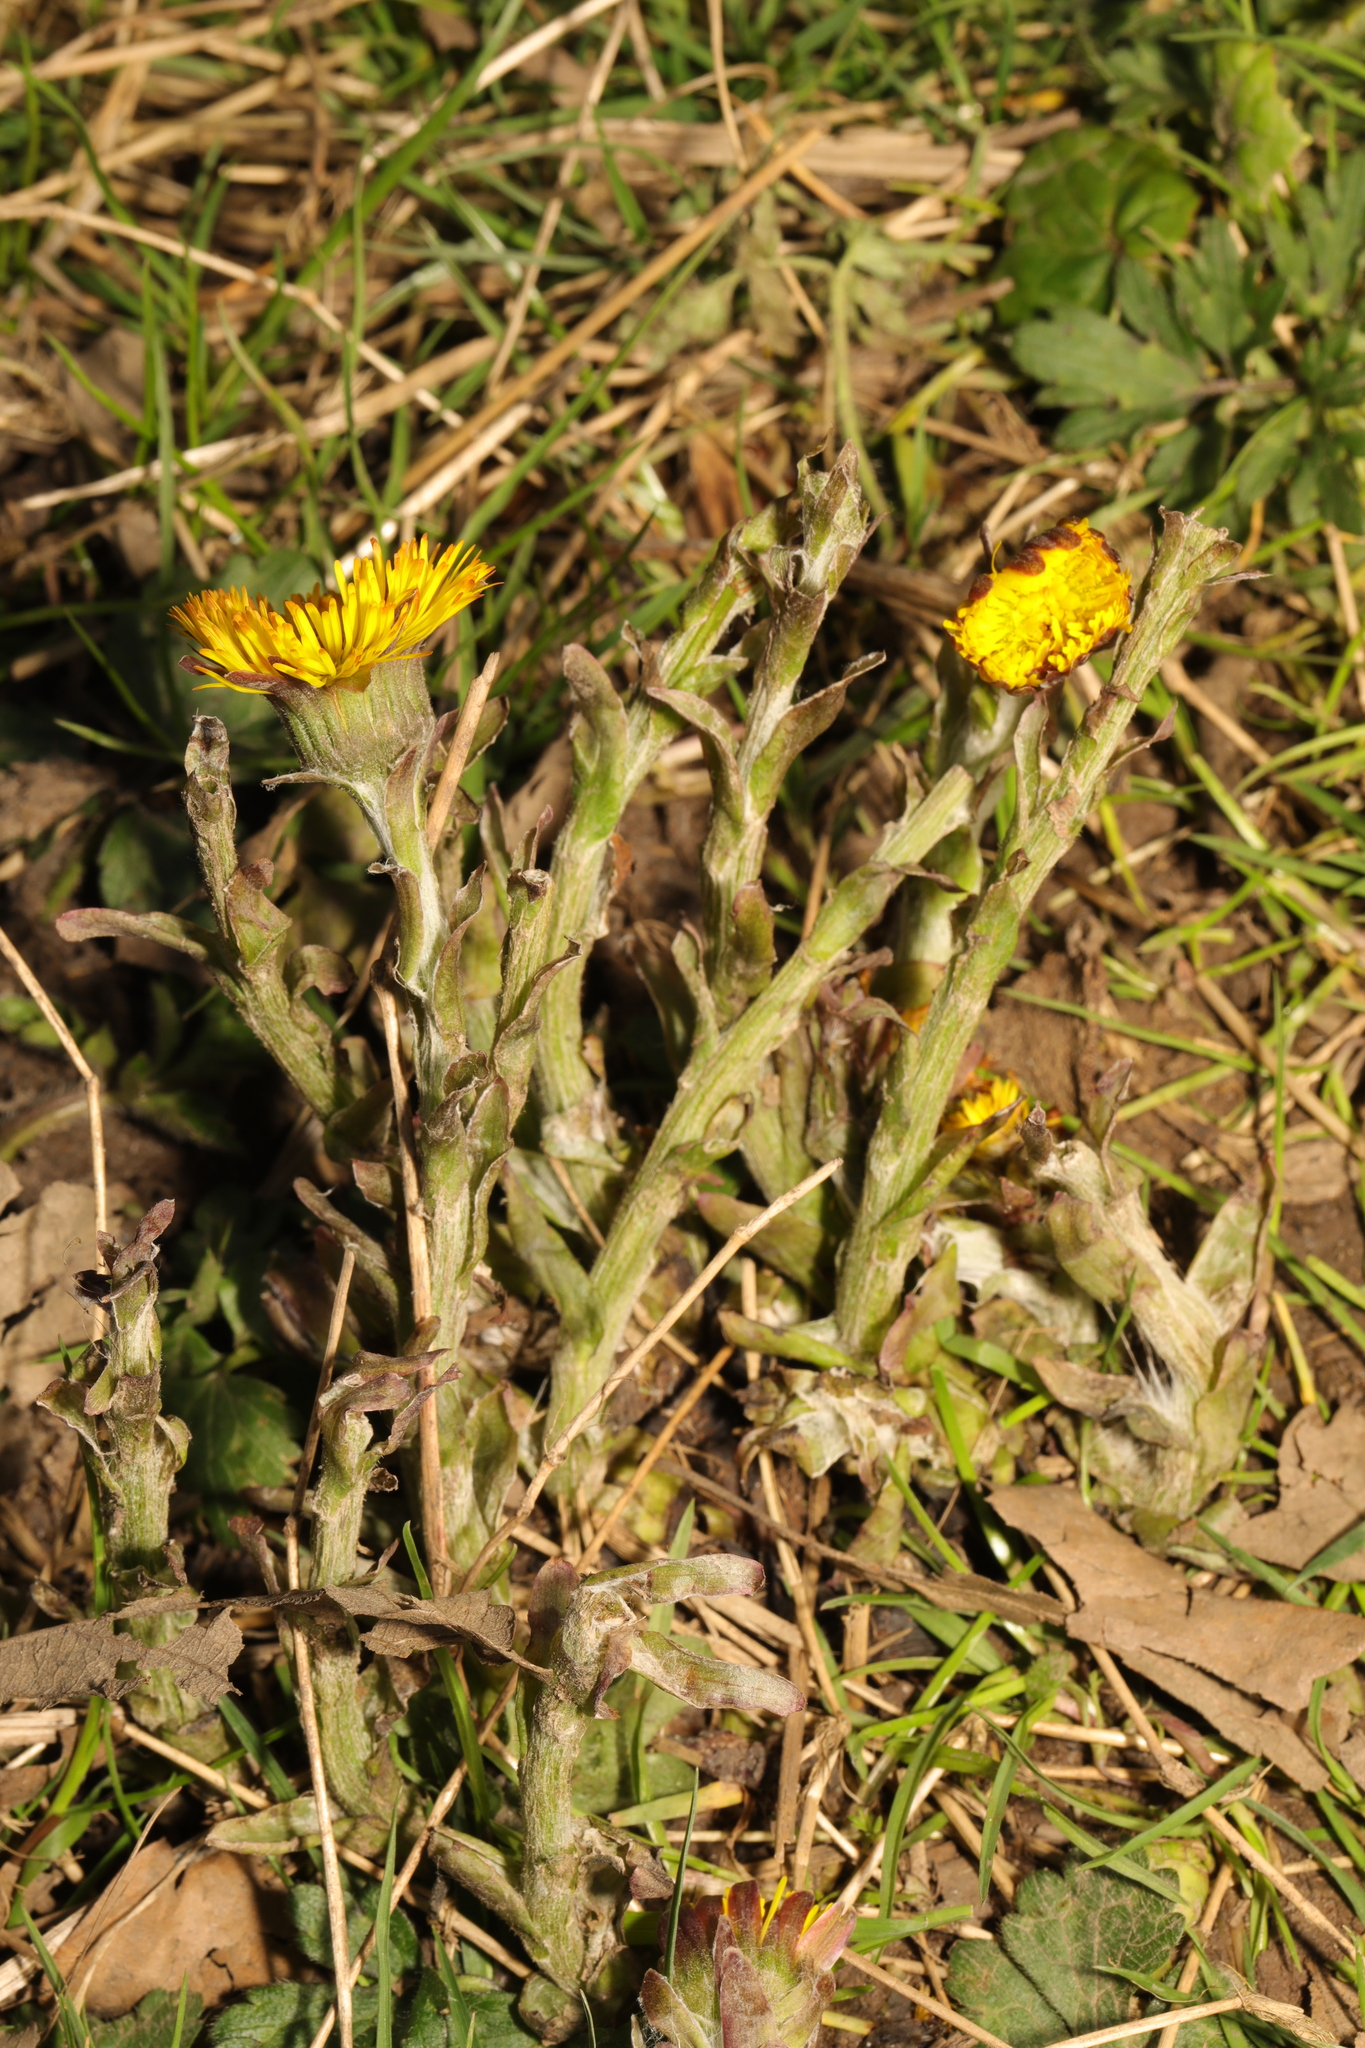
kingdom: Plantae
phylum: Tracheophyta
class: Magnoliopsida
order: Asterales
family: Asteraceae
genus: Tussilago
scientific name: Tussilago farfara
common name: Coltsfoot
